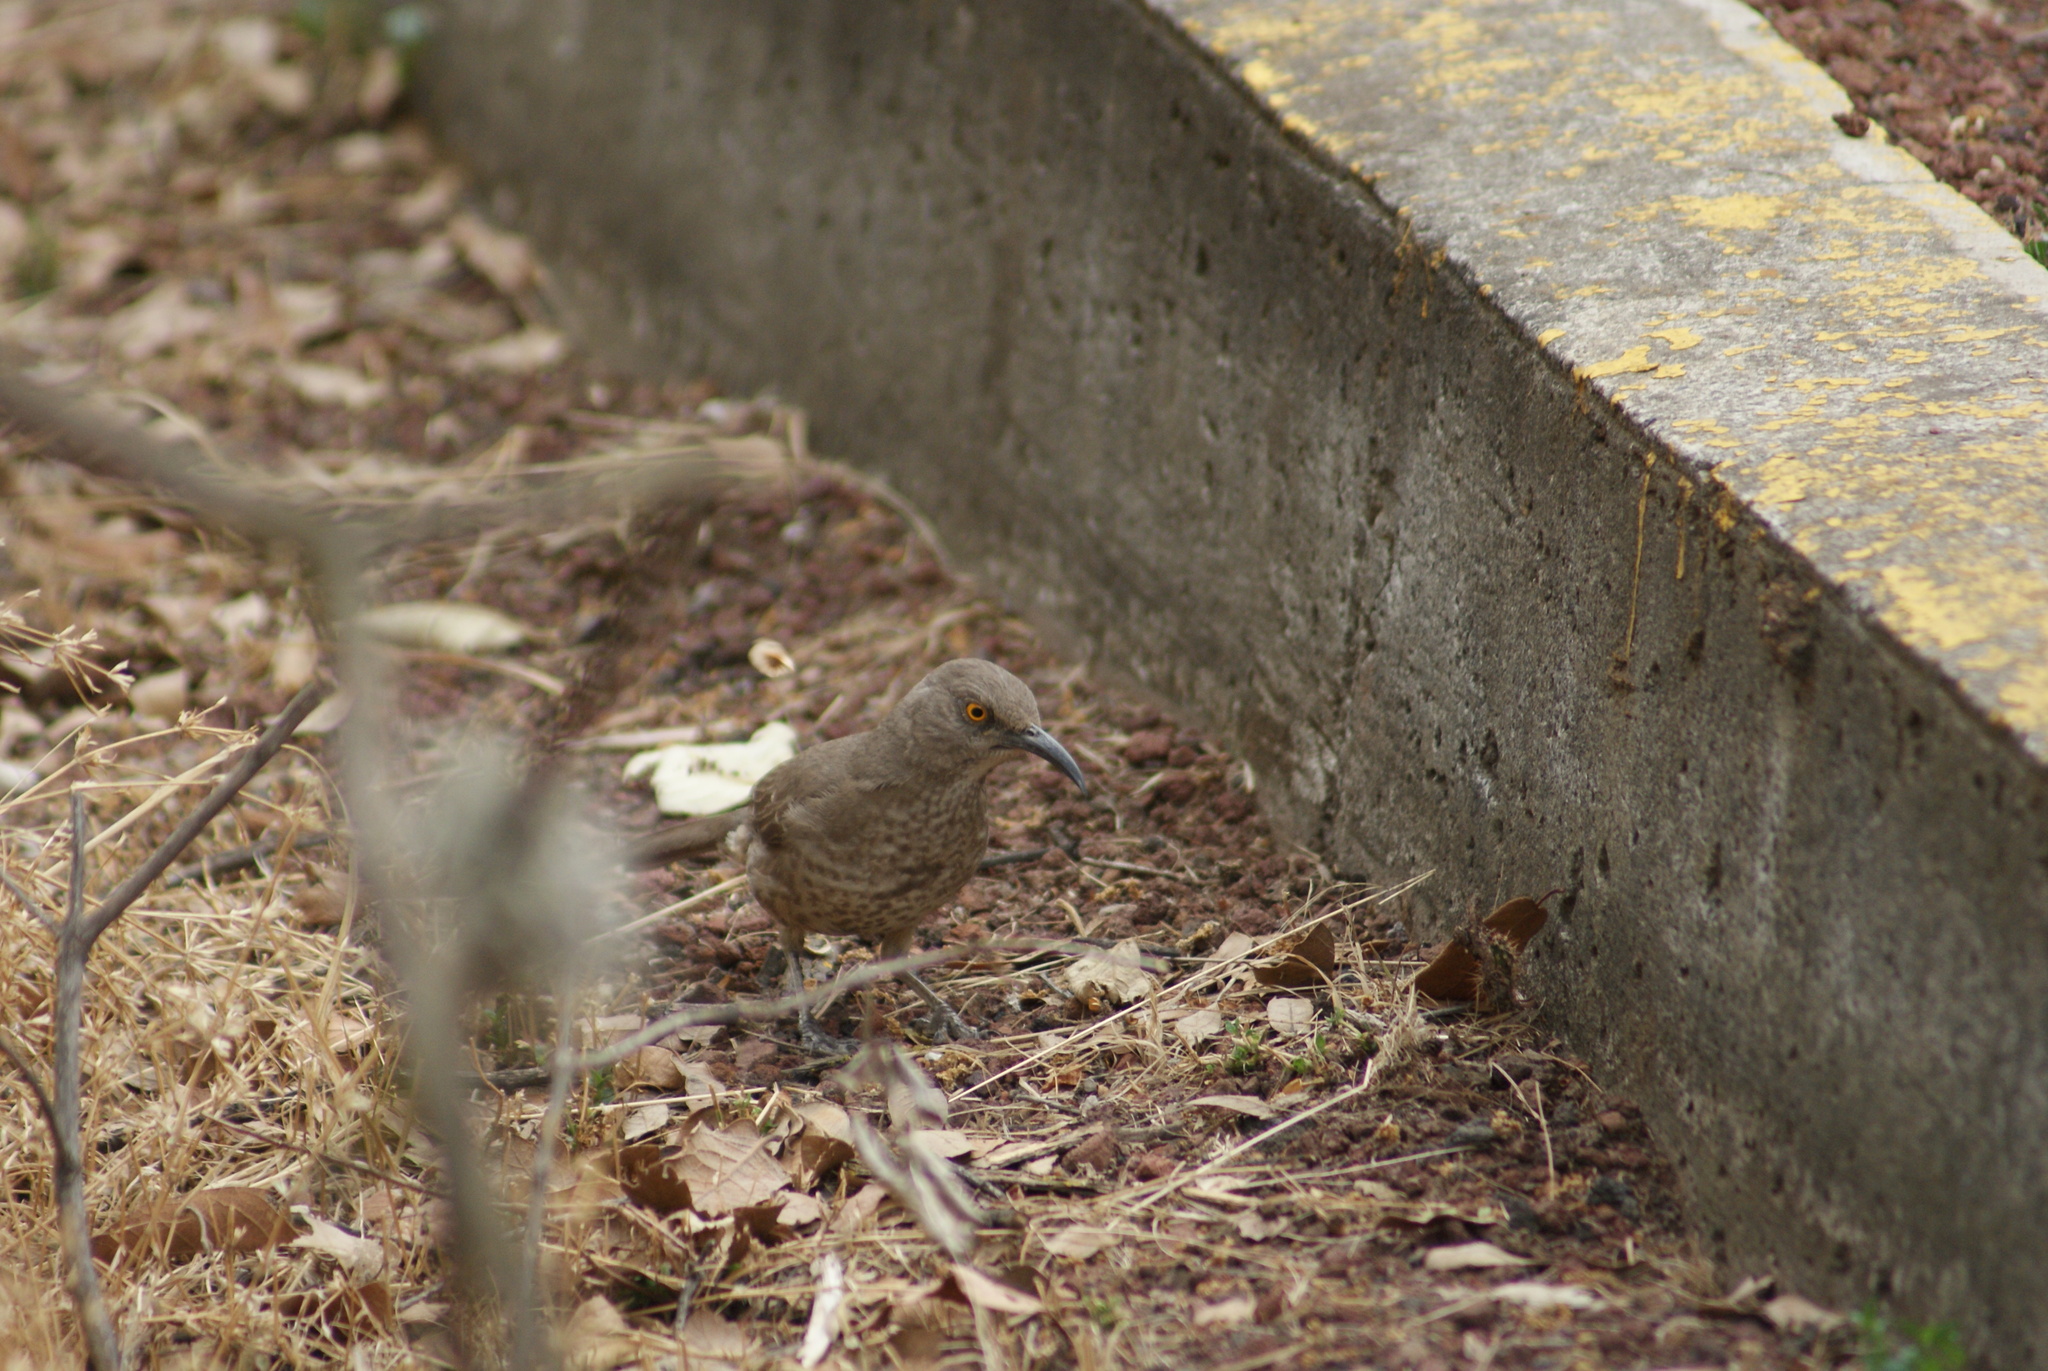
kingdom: Animalia
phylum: Chordata
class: Aves
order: Passeriformes
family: Mimidae
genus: Toxostoma
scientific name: Toxostoma curvirostre
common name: Curve-billed thrasher
